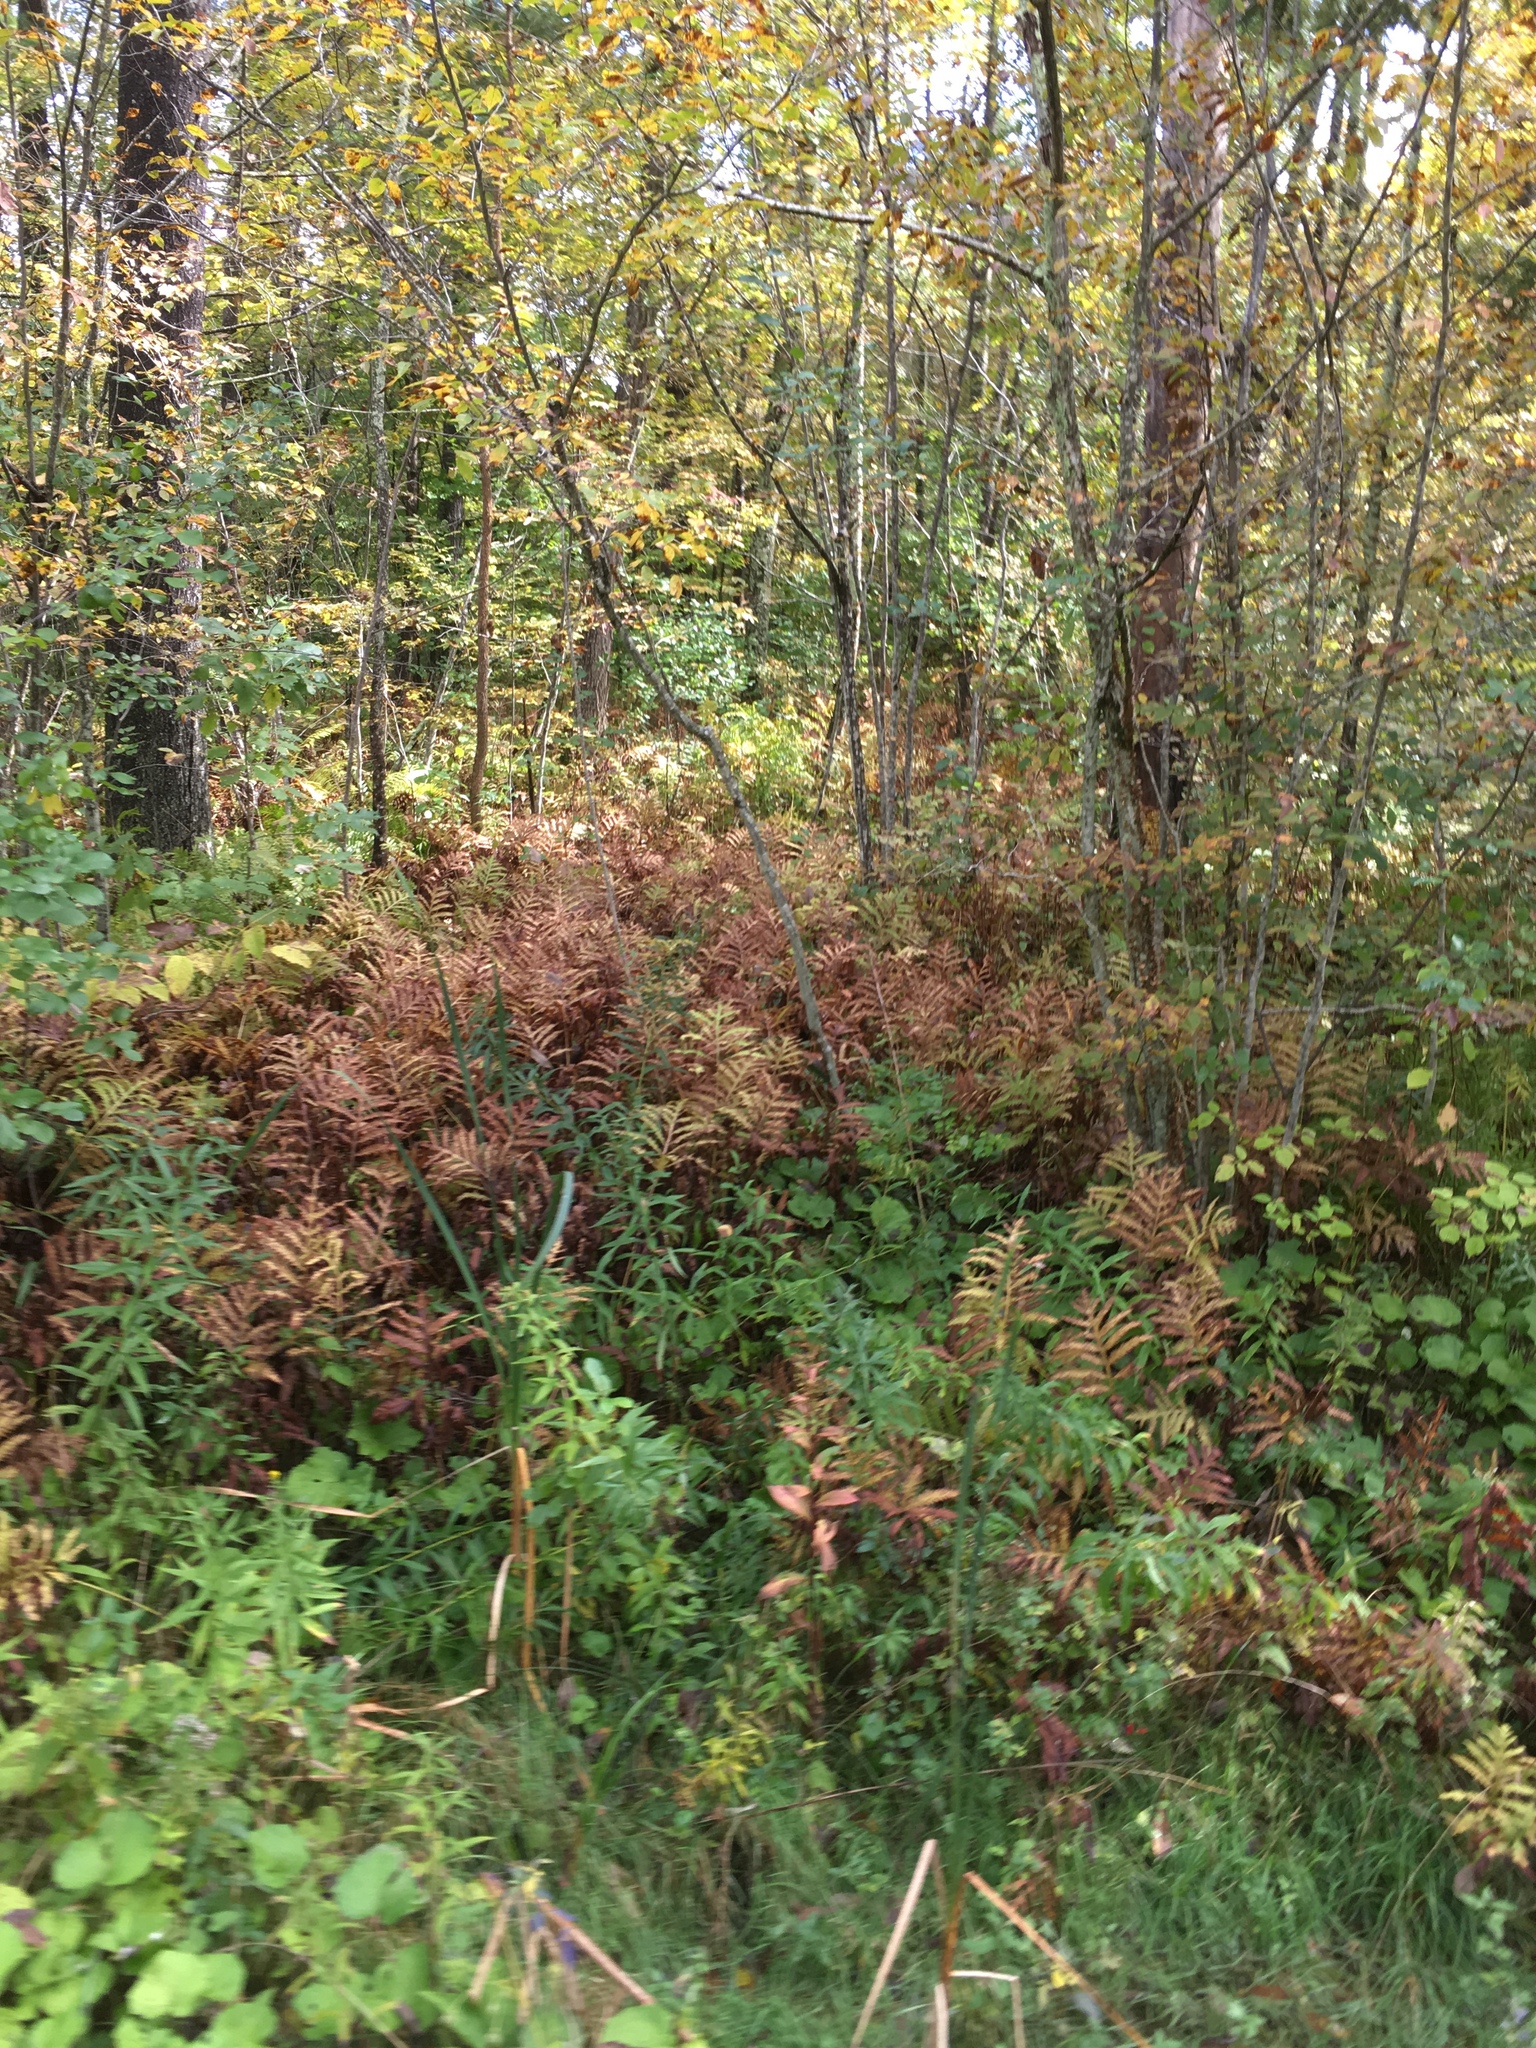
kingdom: Plantae
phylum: Tracheophyta
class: Polypodiopsida
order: Polypodiales
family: Onocleaceae
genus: Onoclea
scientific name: Onoclea sensibilis
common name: Sensitive fern
